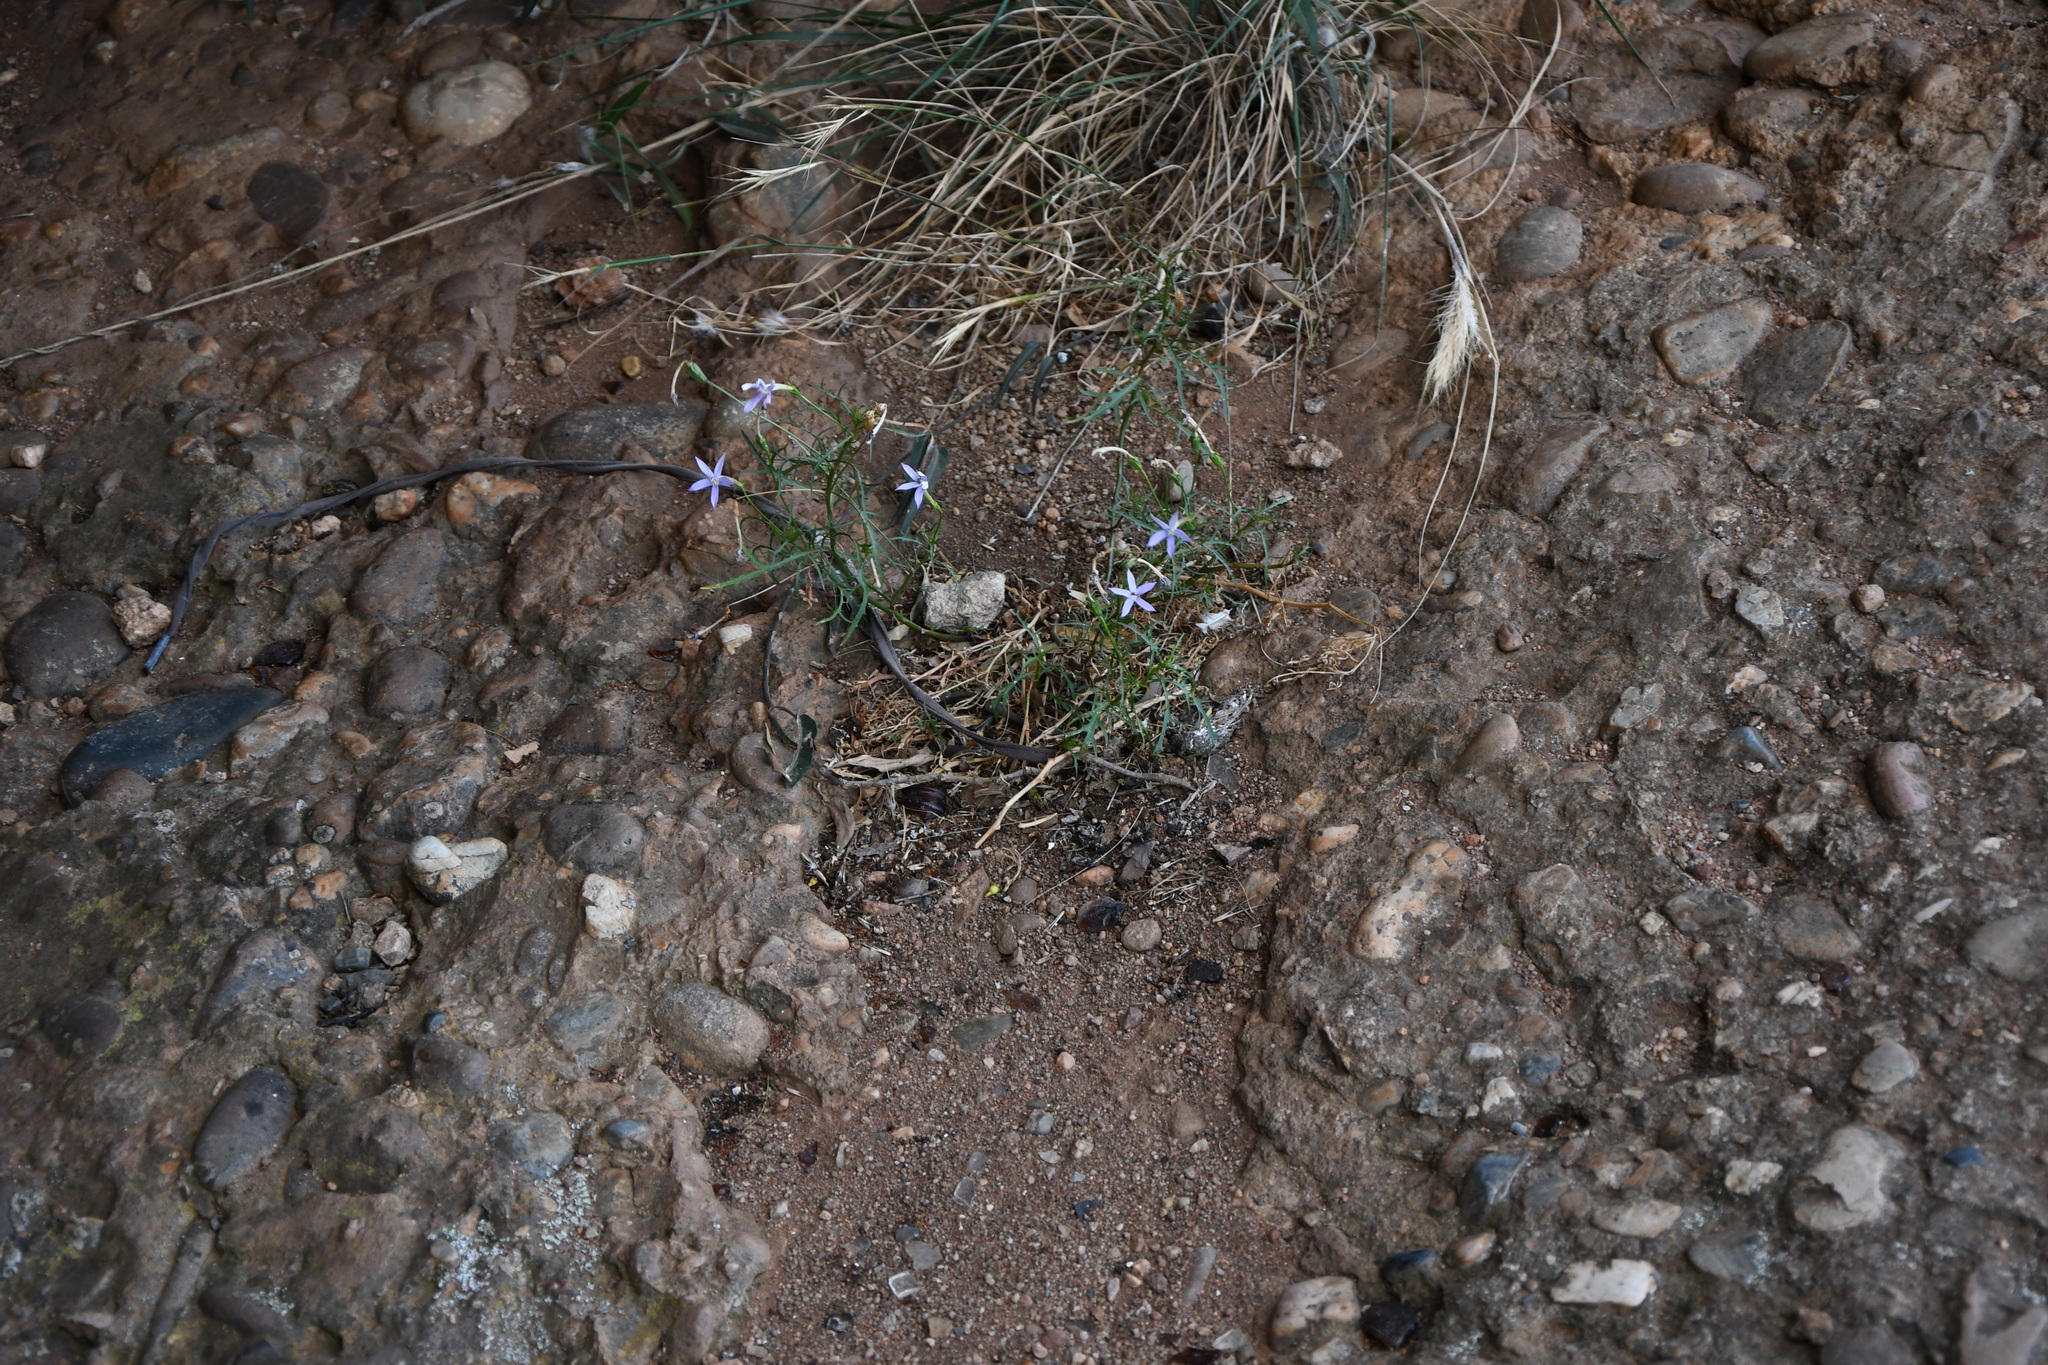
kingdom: Plantae
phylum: Tracheophyta
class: Magnoliopsida
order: Asterales
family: Campanulaceae
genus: Lithotoma
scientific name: Lithotoma axillaris
